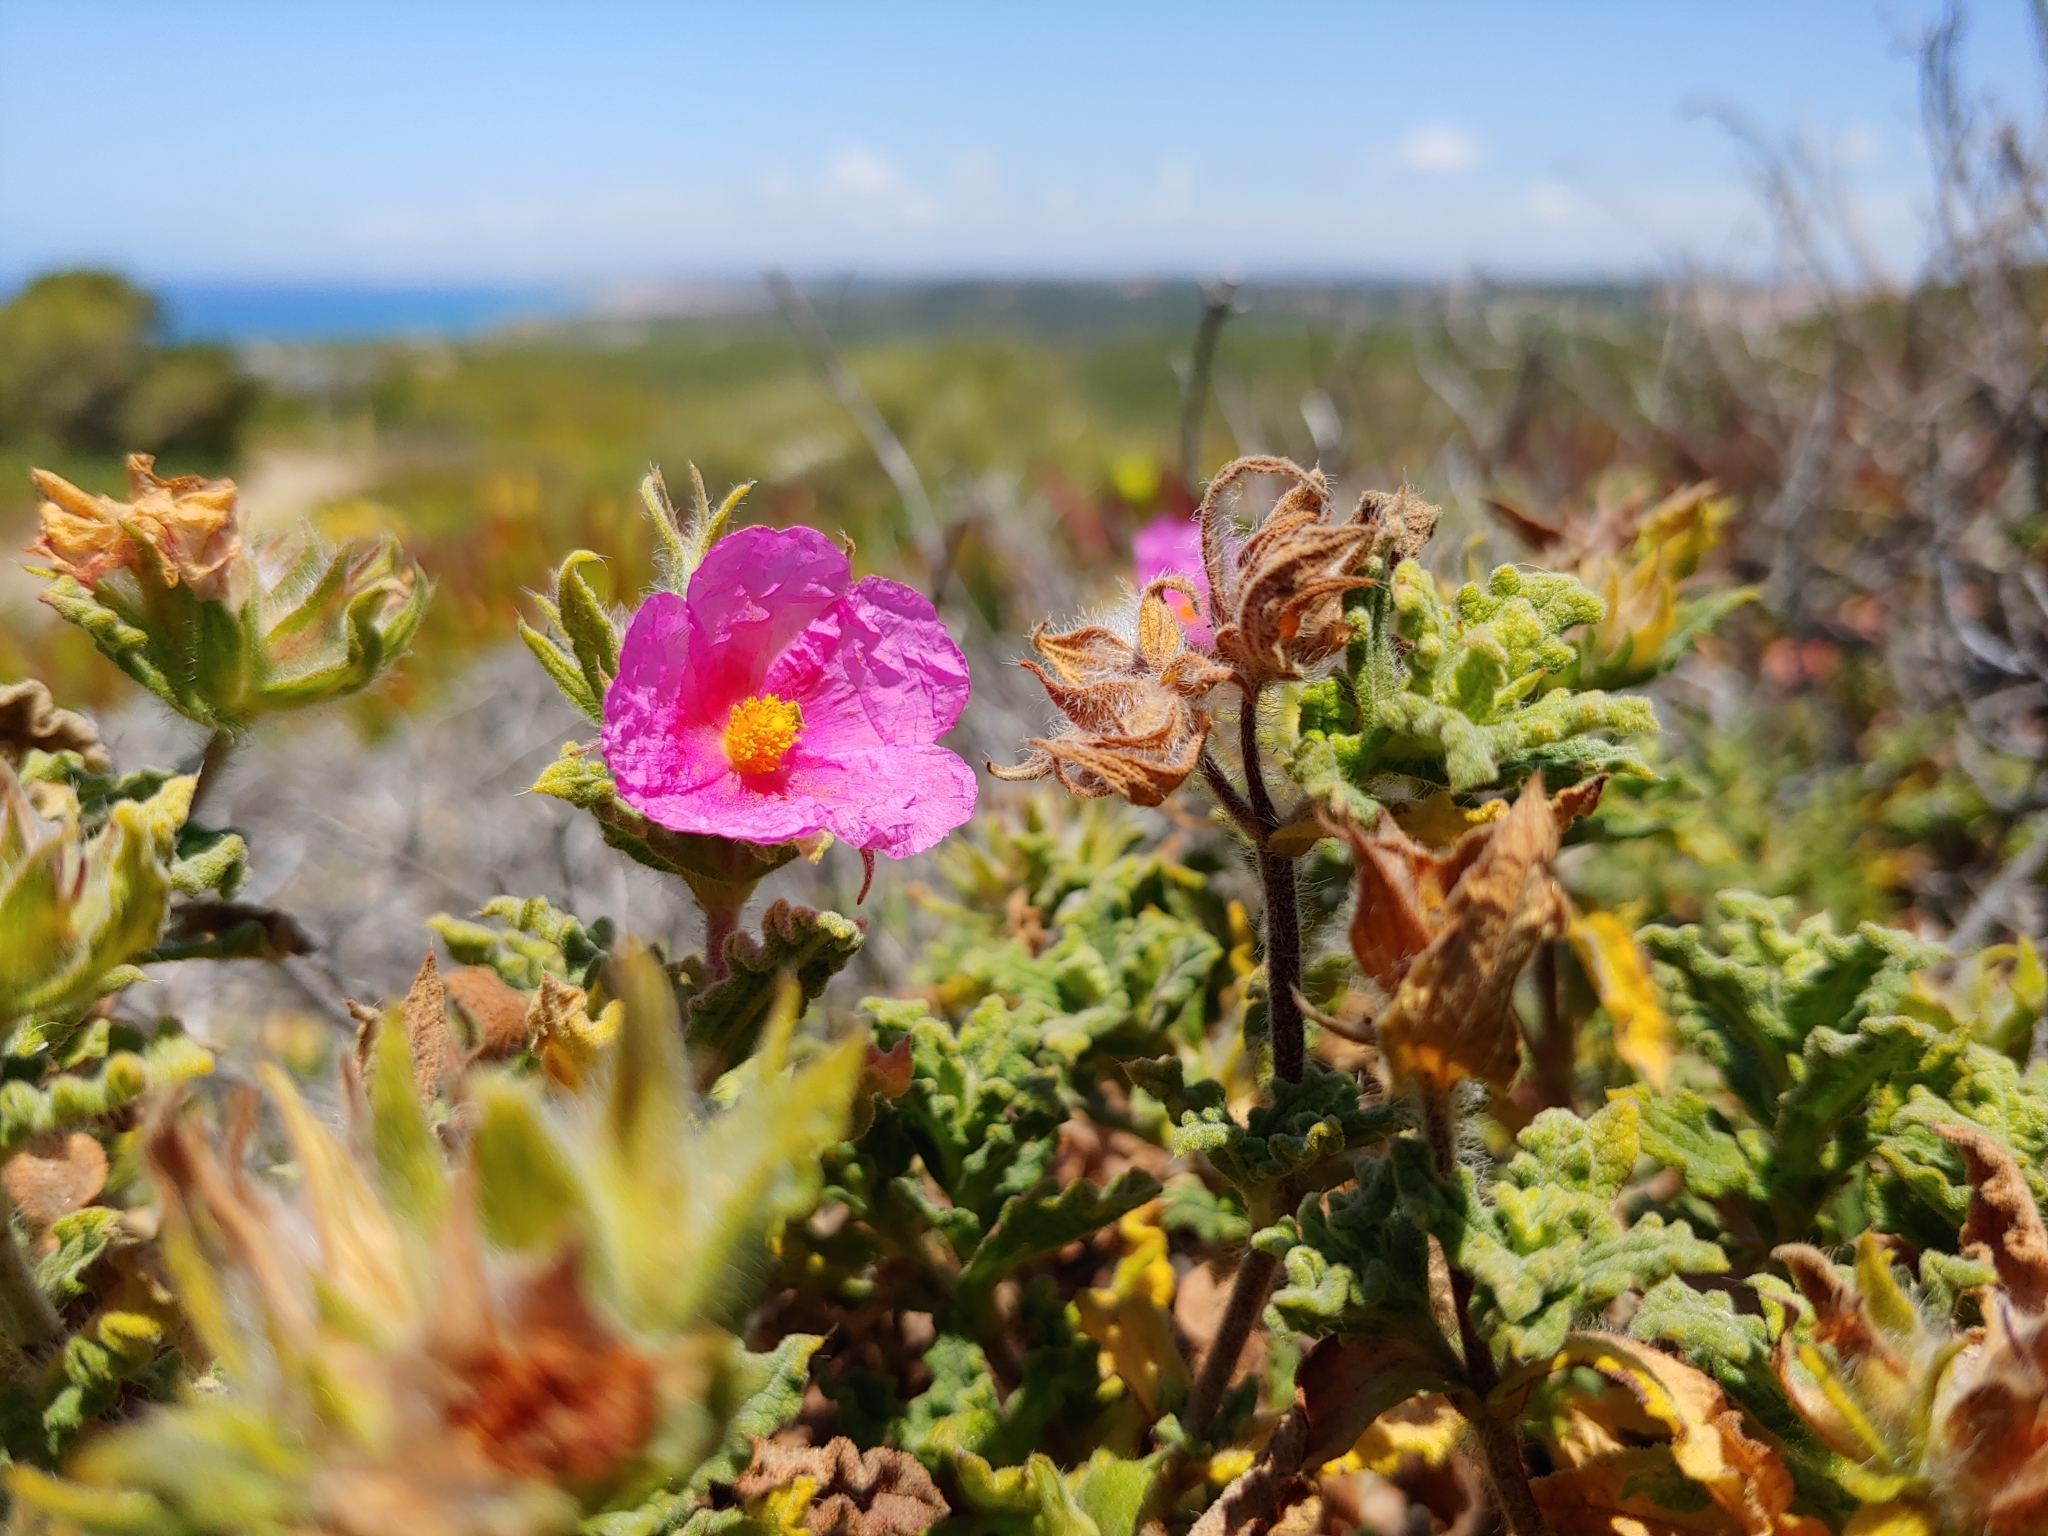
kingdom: Plantae
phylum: Tracheophyta
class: Magnoliopsida
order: Malvales
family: Cistaceae
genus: Cistus
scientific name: Cistus crispus
